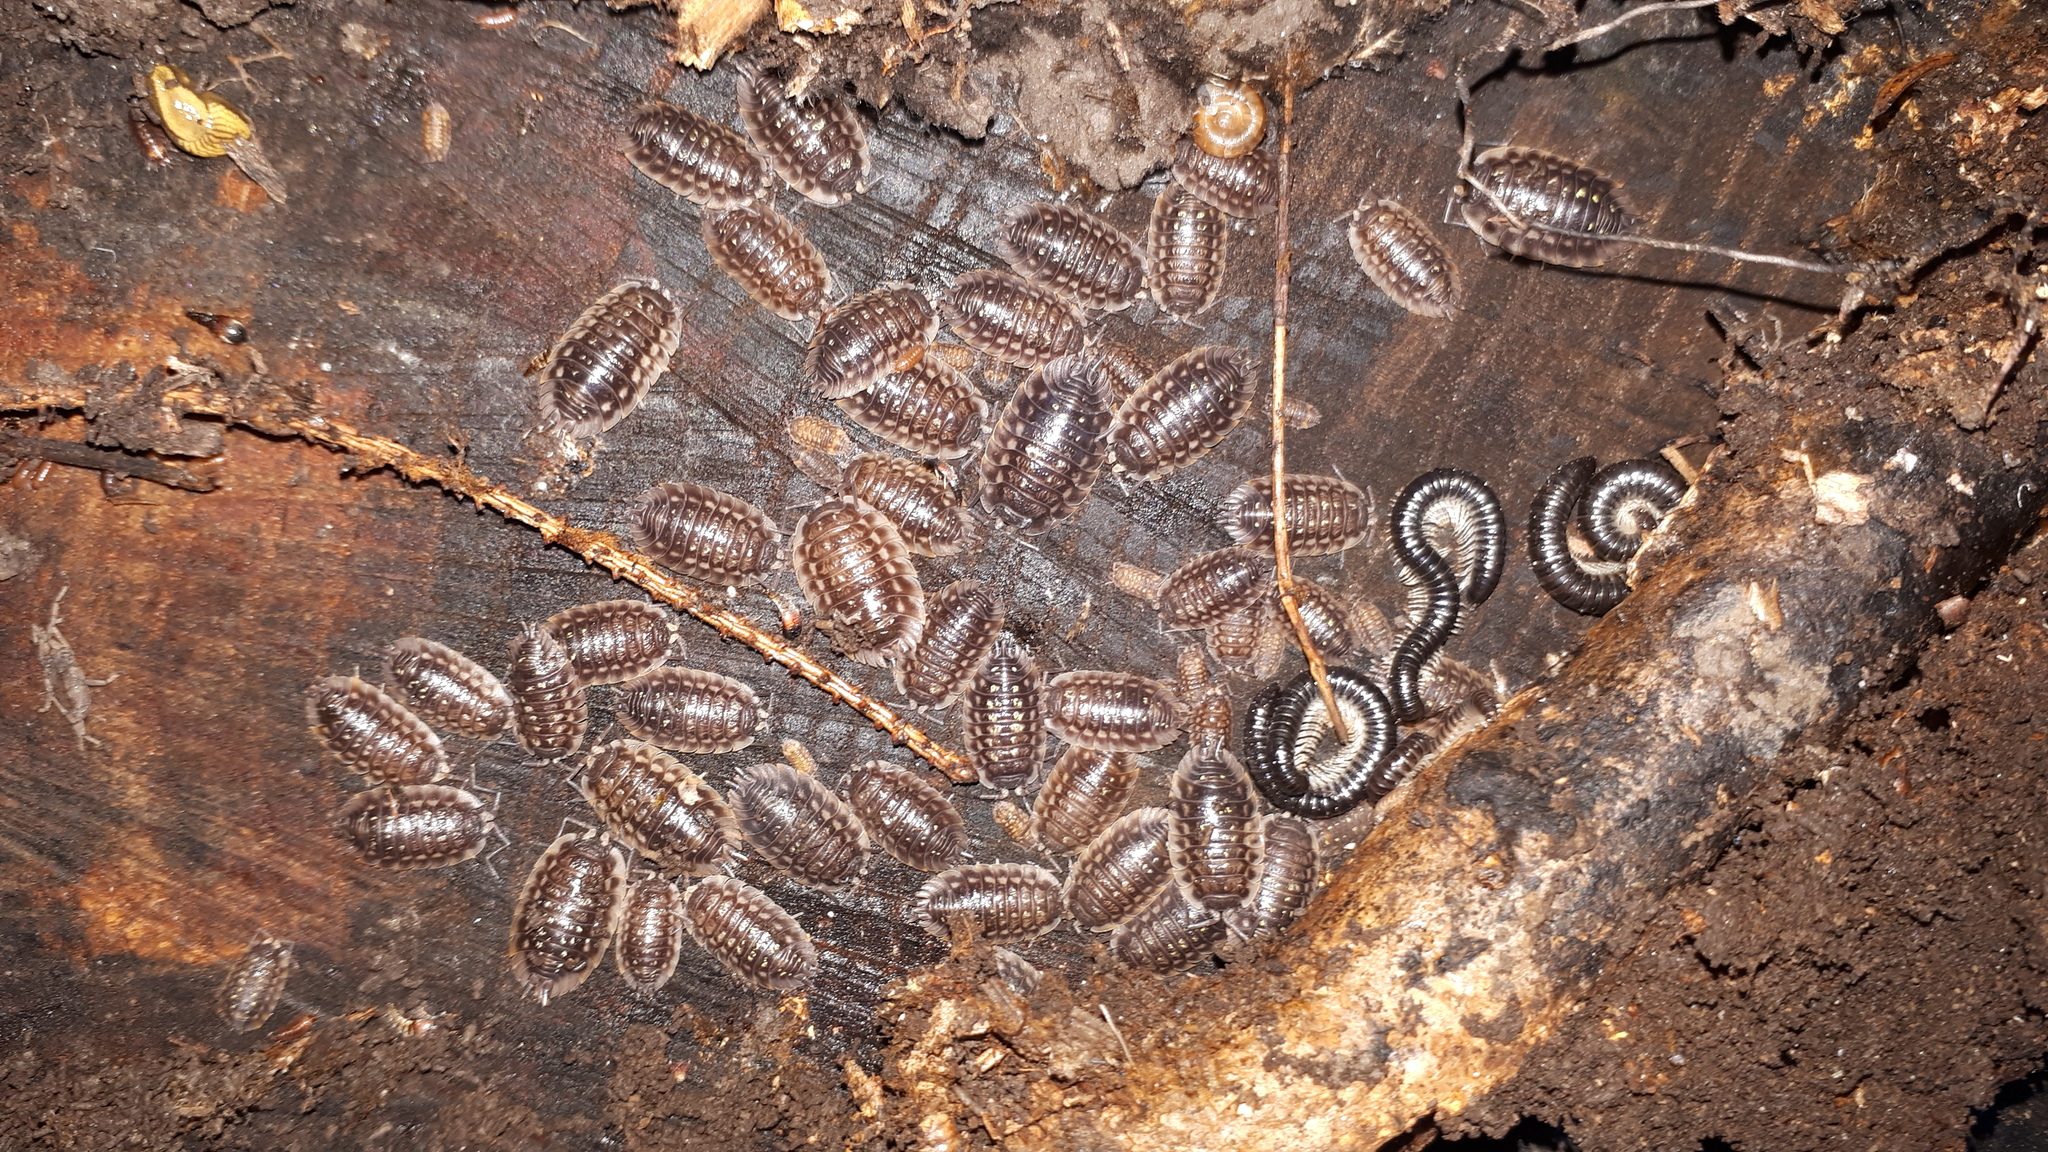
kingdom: Animalia
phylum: Arthropoda
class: Malacostraca
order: Isopoda
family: Oniscidae
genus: Oniscus
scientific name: Oniscus asellus
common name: Common shiny woodlouse
